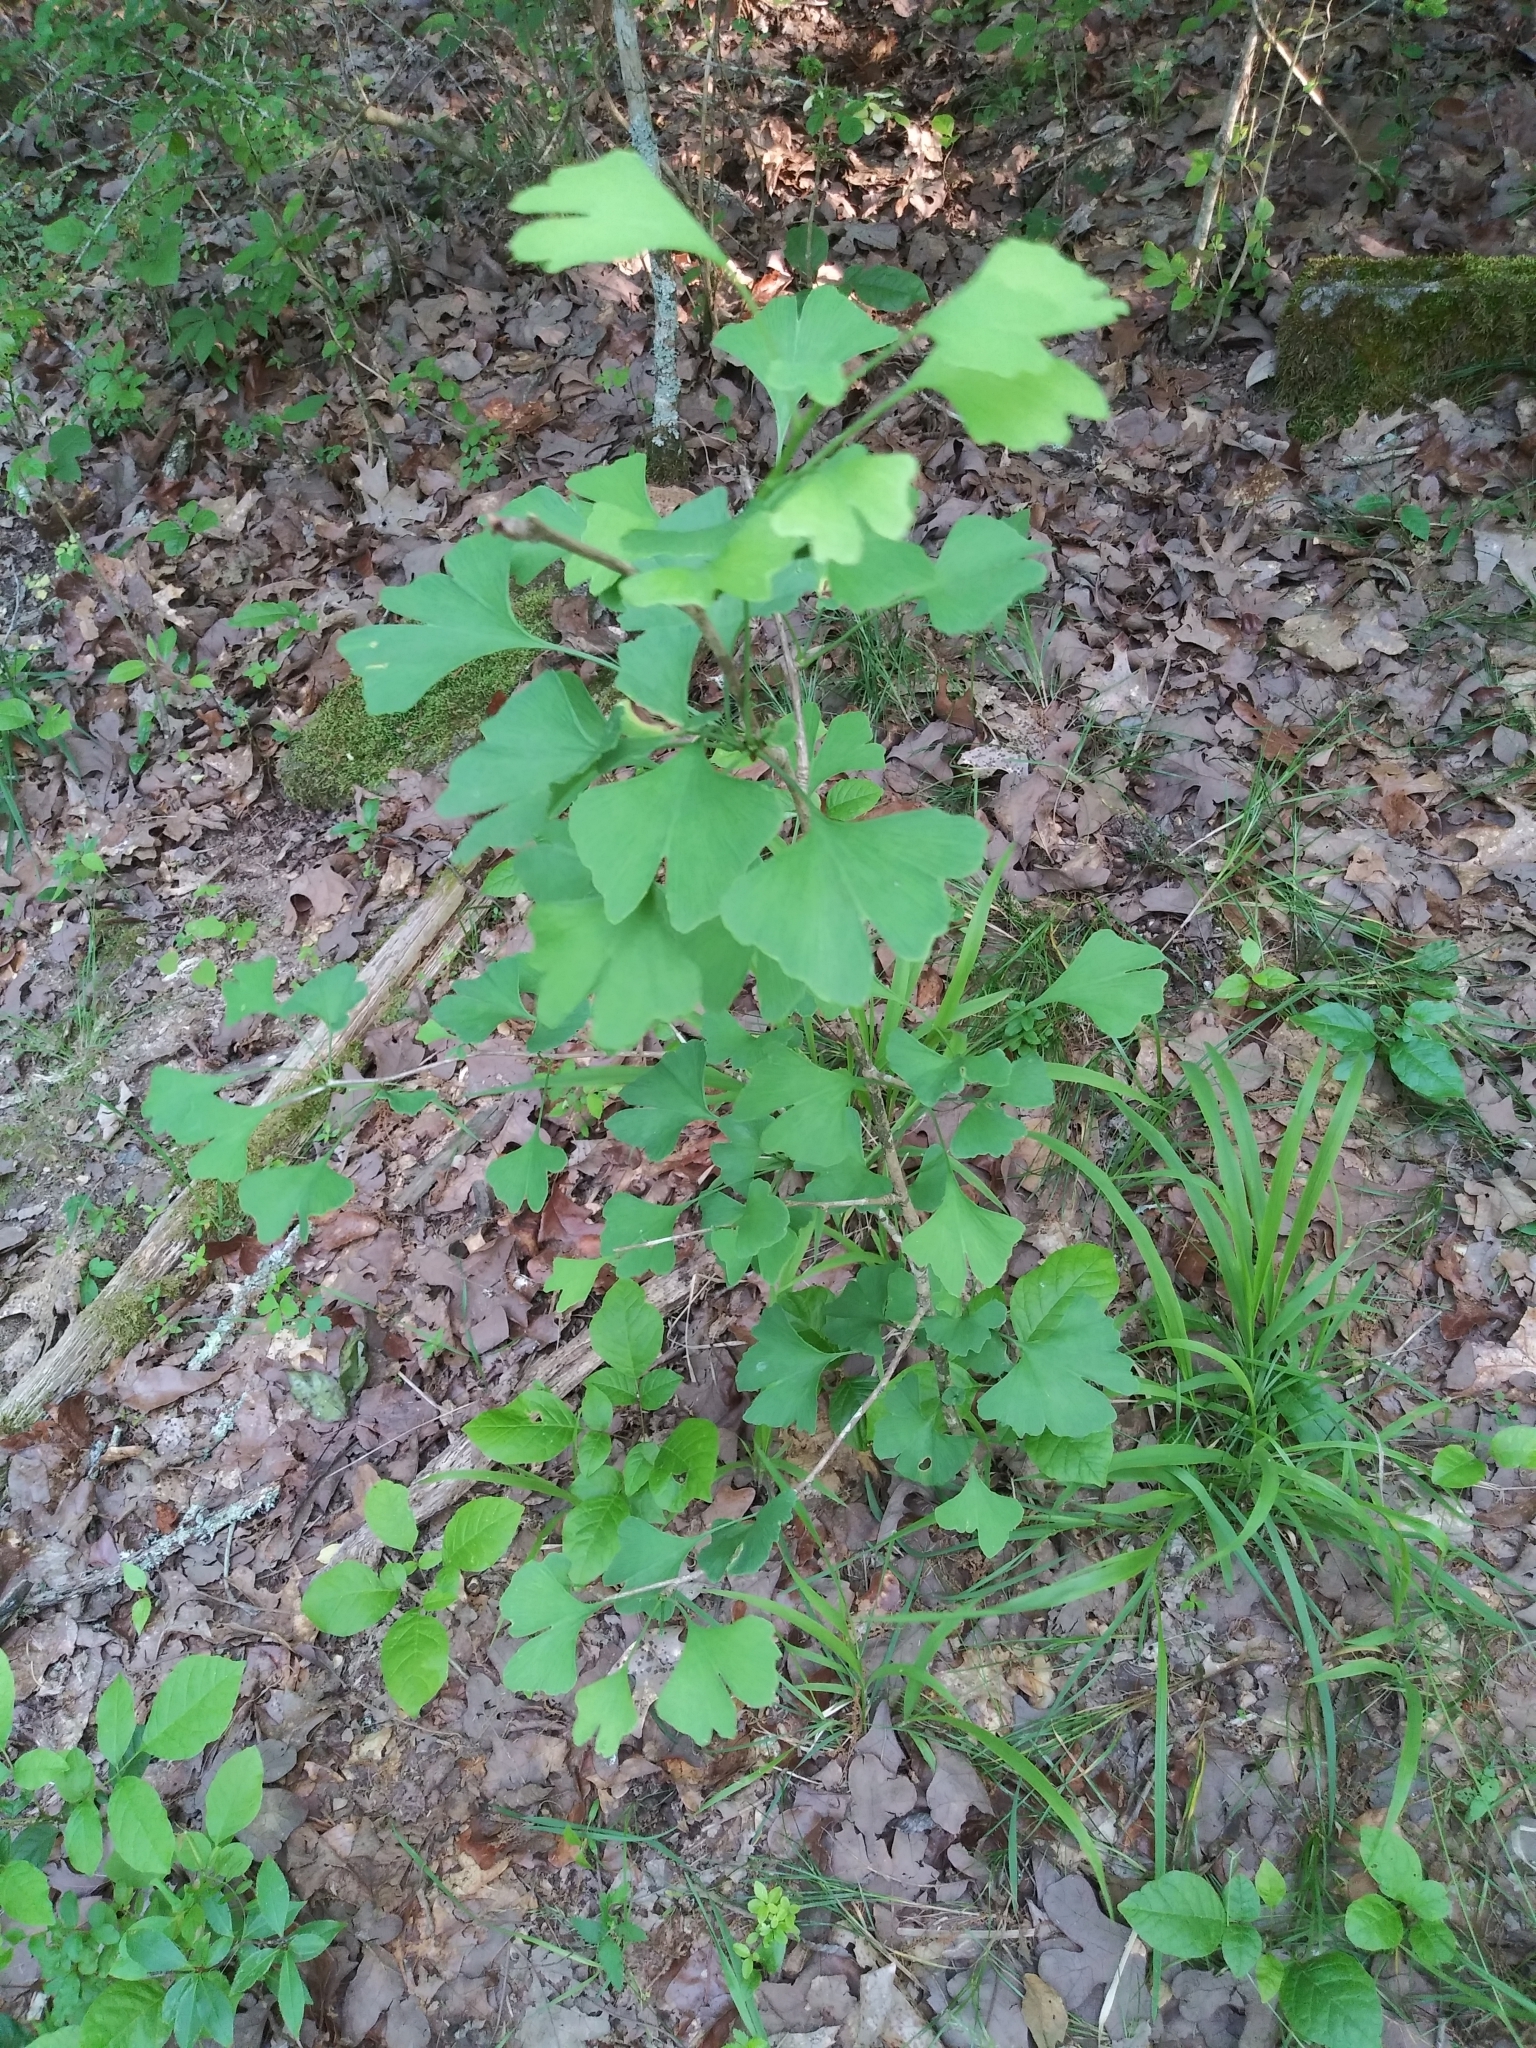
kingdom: Plantae
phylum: Tracheophyta
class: Ginkgoopsida
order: Ginkgoales
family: Ginkgoaceae
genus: Ginkgo
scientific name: Ginkgo biloba
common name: Ginkgo
